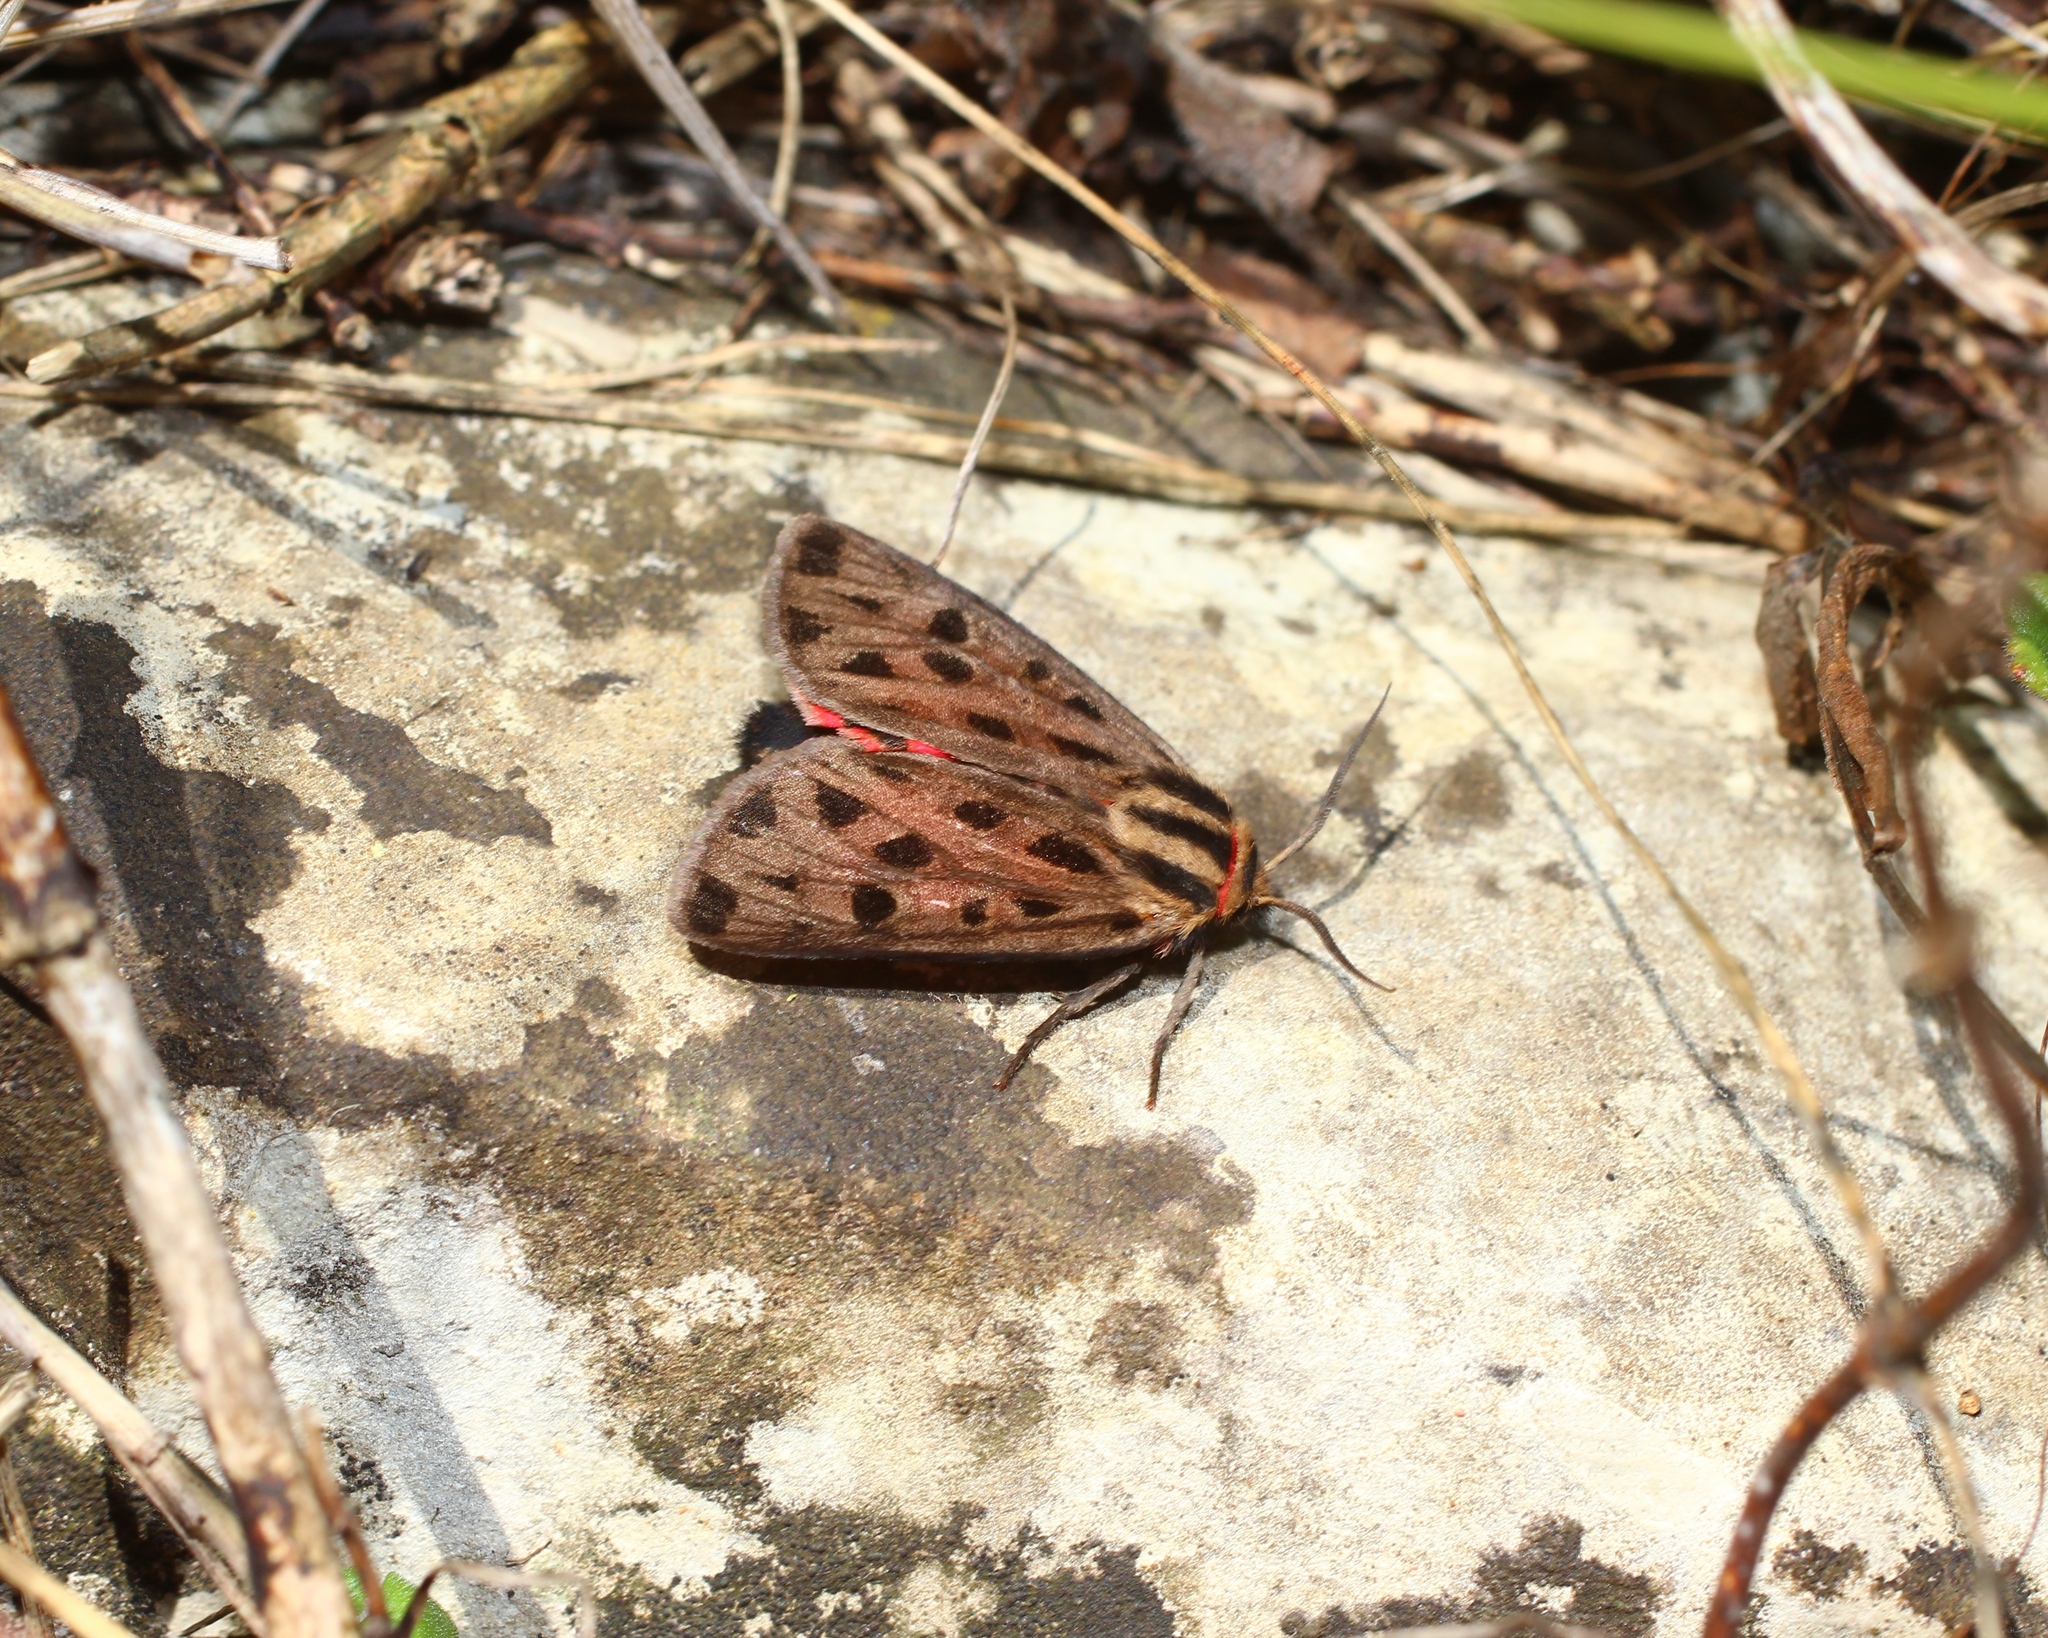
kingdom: Animalia
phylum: Arthropoda
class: Insecta
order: Lepidoptera
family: Erebidae
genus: Chelis
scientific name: Chelis maculosa
